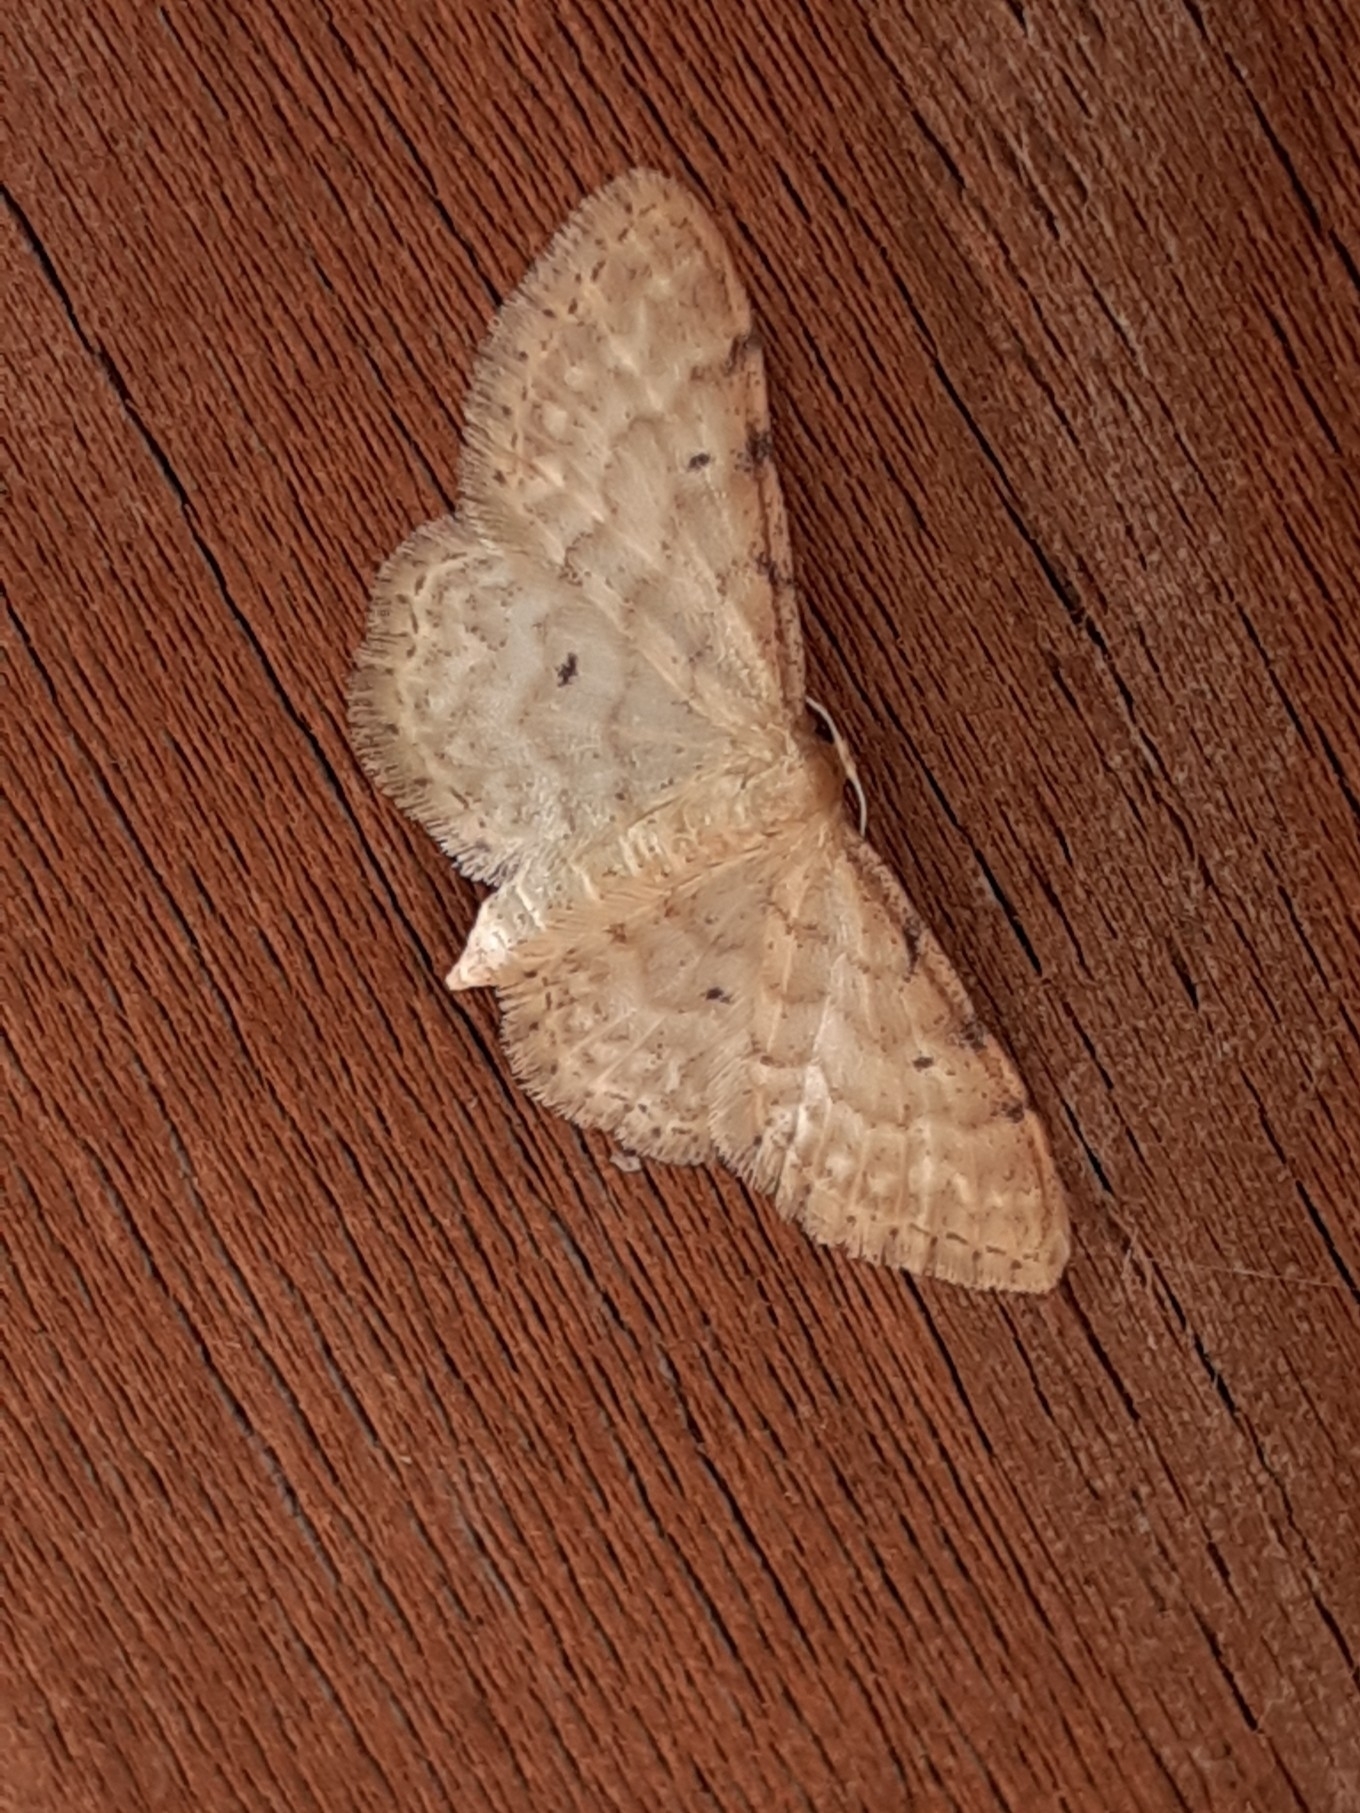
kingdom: Animalia
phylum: Arthropoda
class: Insecta
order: Lepidoptera
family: Geometridae
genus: Idaea
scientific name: Idaea fuscovenosa
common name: Dwarf cream wave
